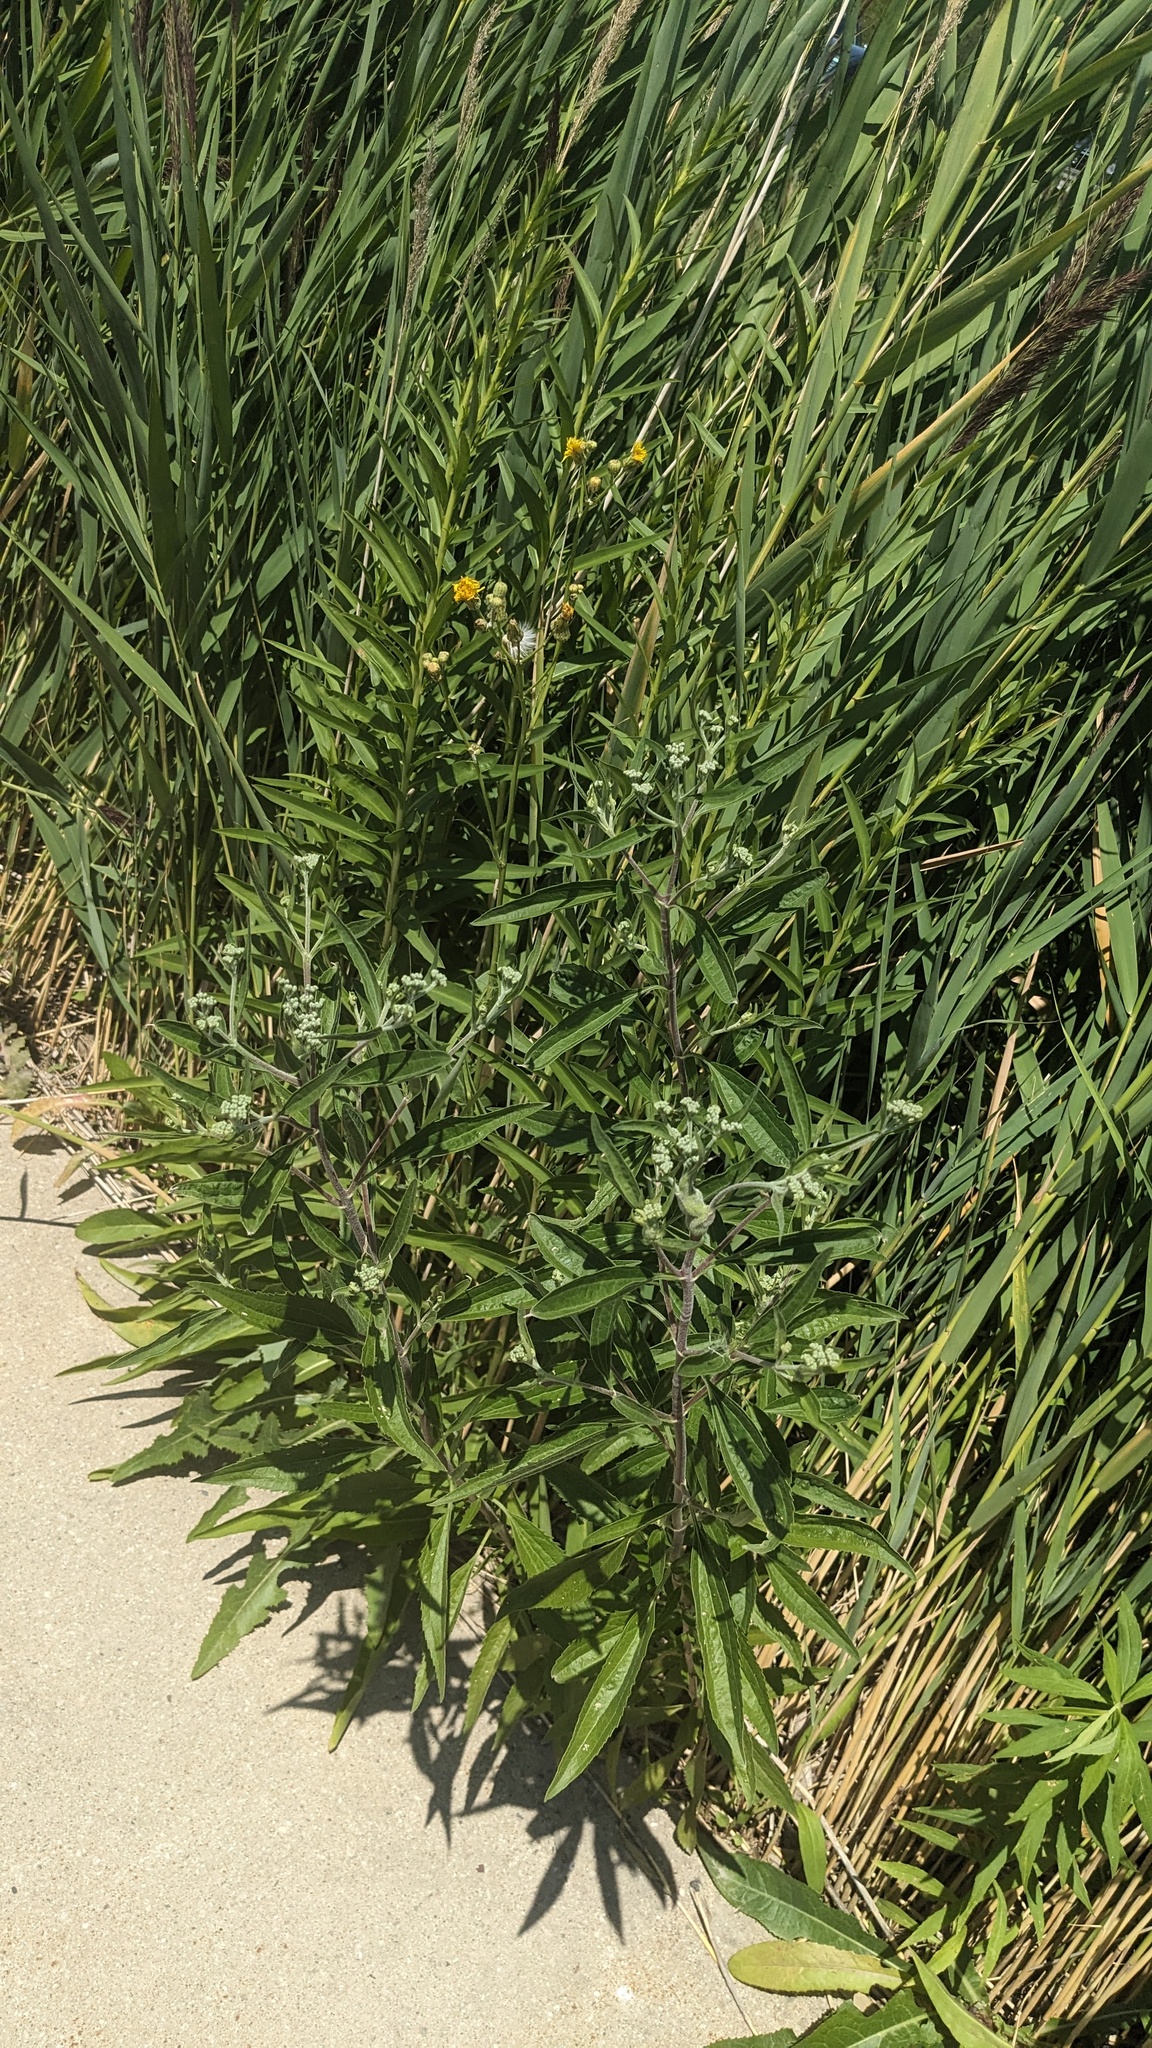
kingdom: Plantae
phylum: Tracheophyta
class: Magnoliopsida
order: Asterales
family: Asteraceae
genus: Eupatorium
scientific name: Eupatorium serotinum
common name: Late boneset
